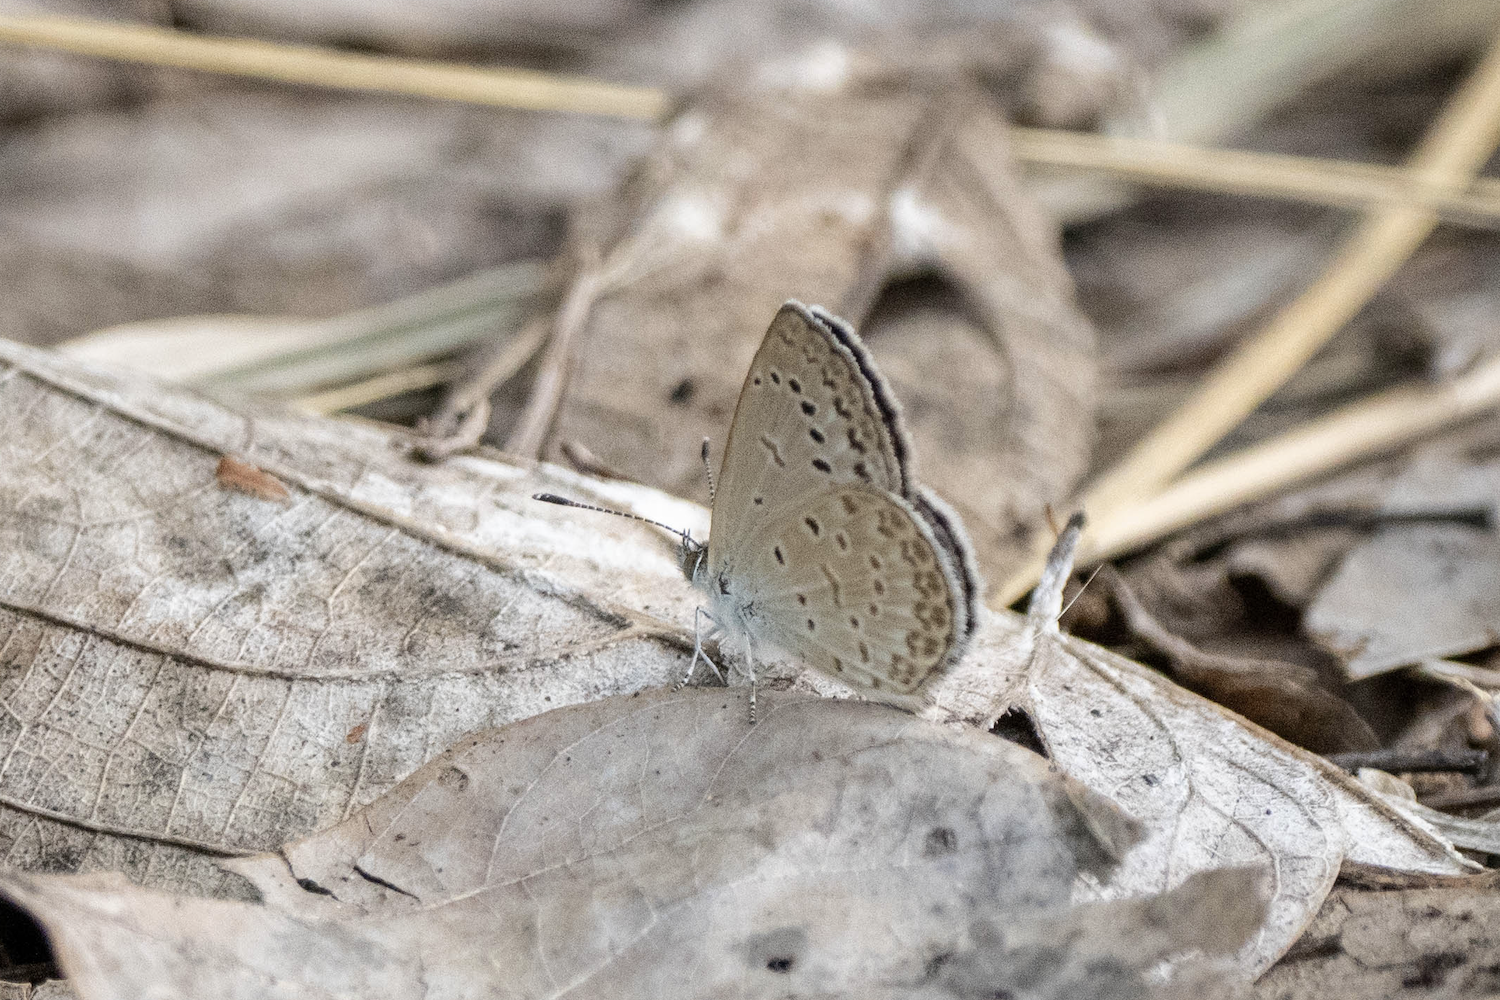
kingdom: Animalia
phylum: Arthropoda
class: Insecta
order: Lepidoptera
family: Lycaenidae
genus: Pseudozizeeria
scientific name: Pseudozizeeria maha
